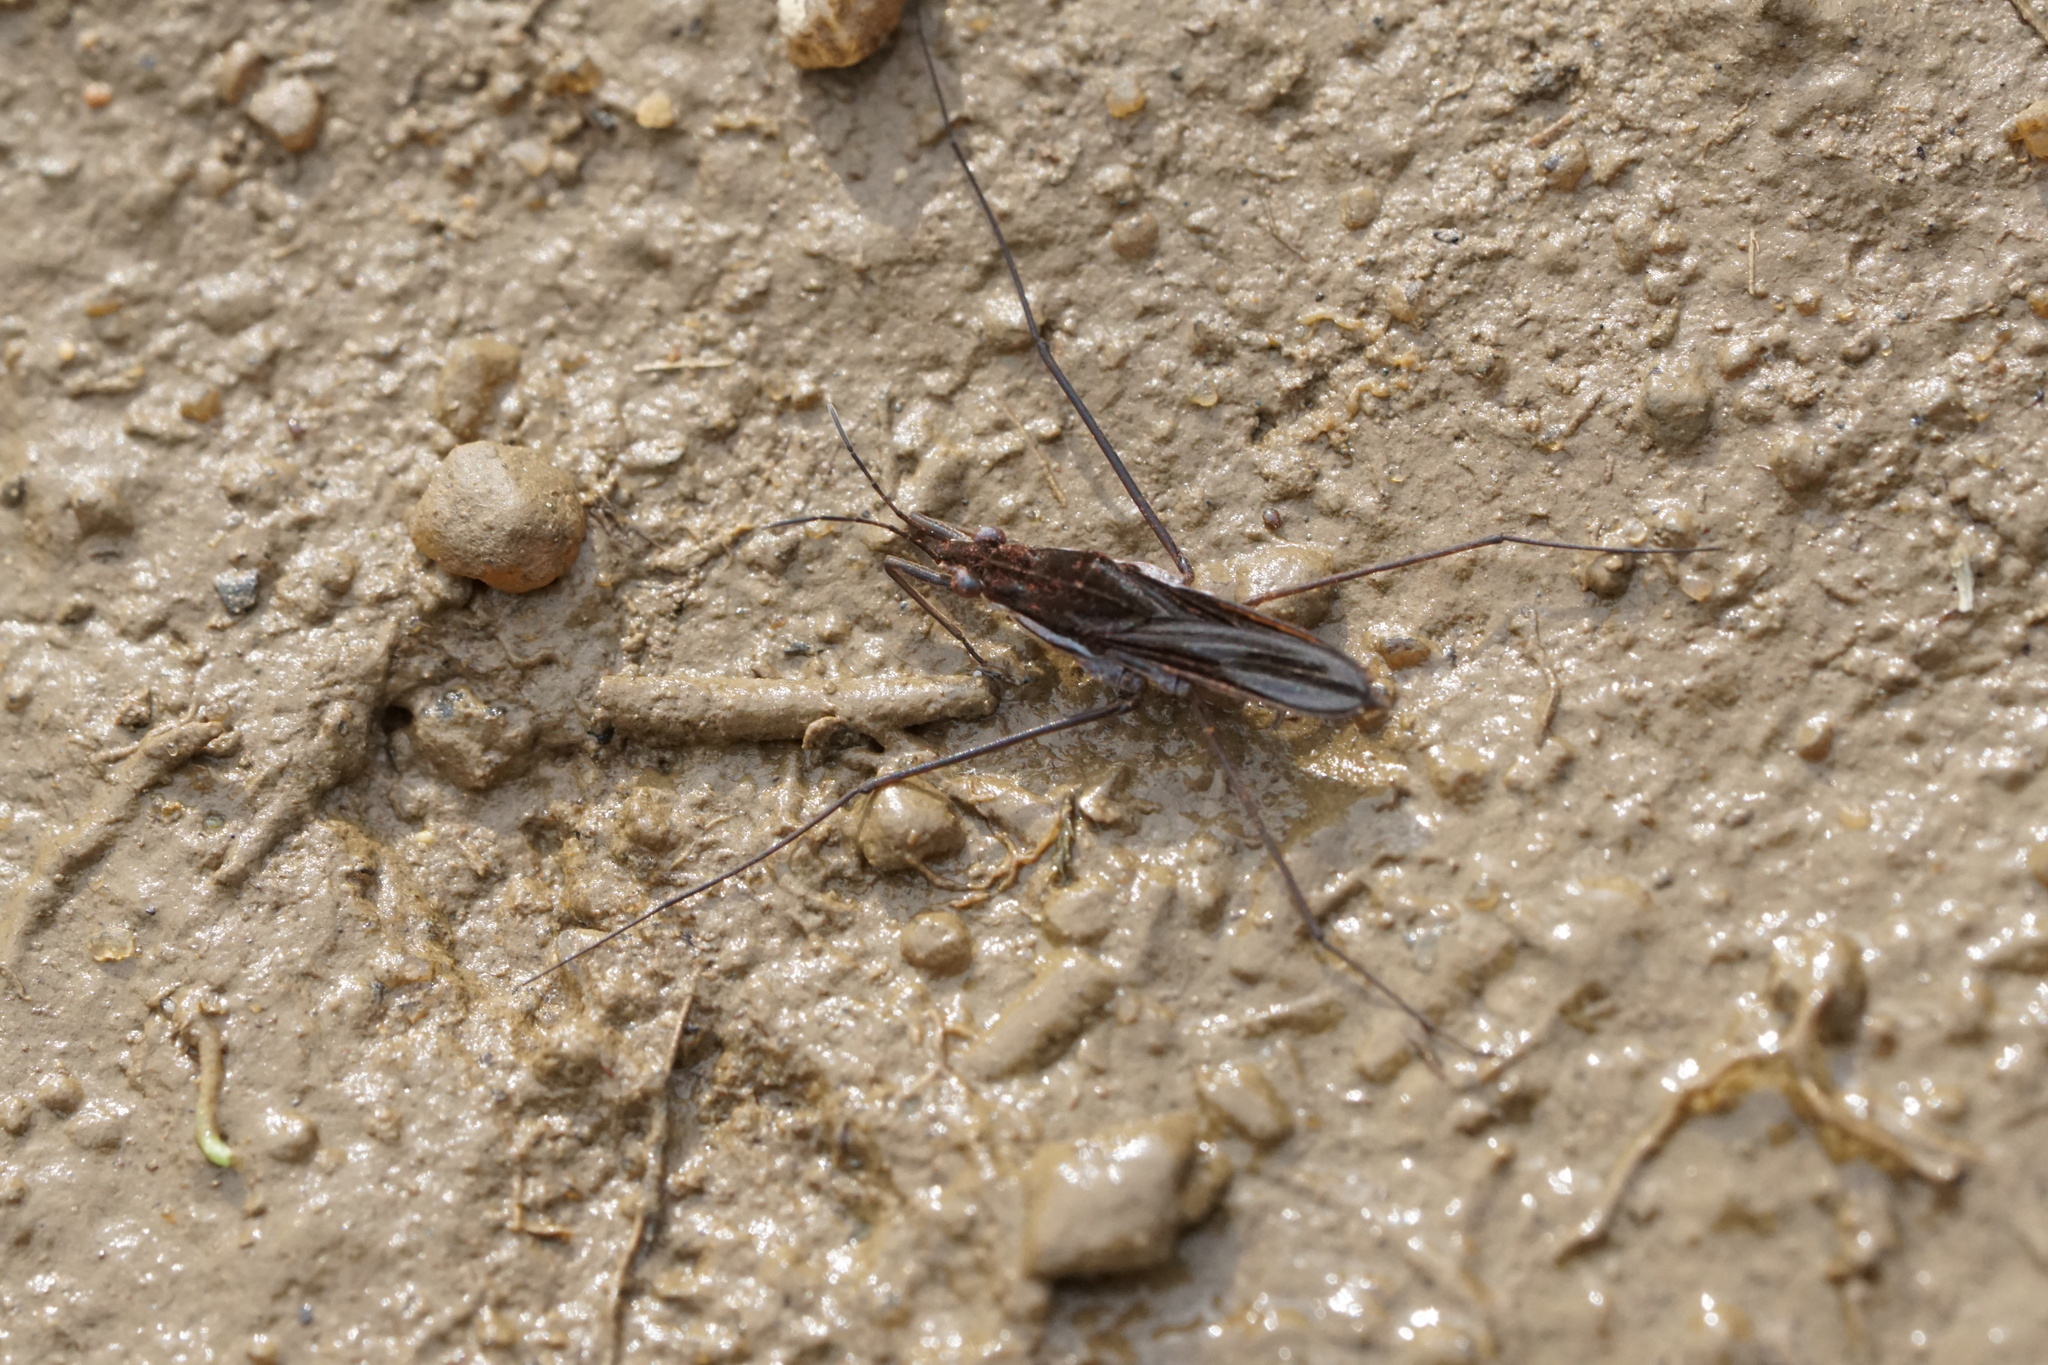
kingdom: Animalia
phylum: Arthropoda
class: Insecta
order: Hemiptera
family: Gerridae
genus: Gerris
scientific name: Gerris
